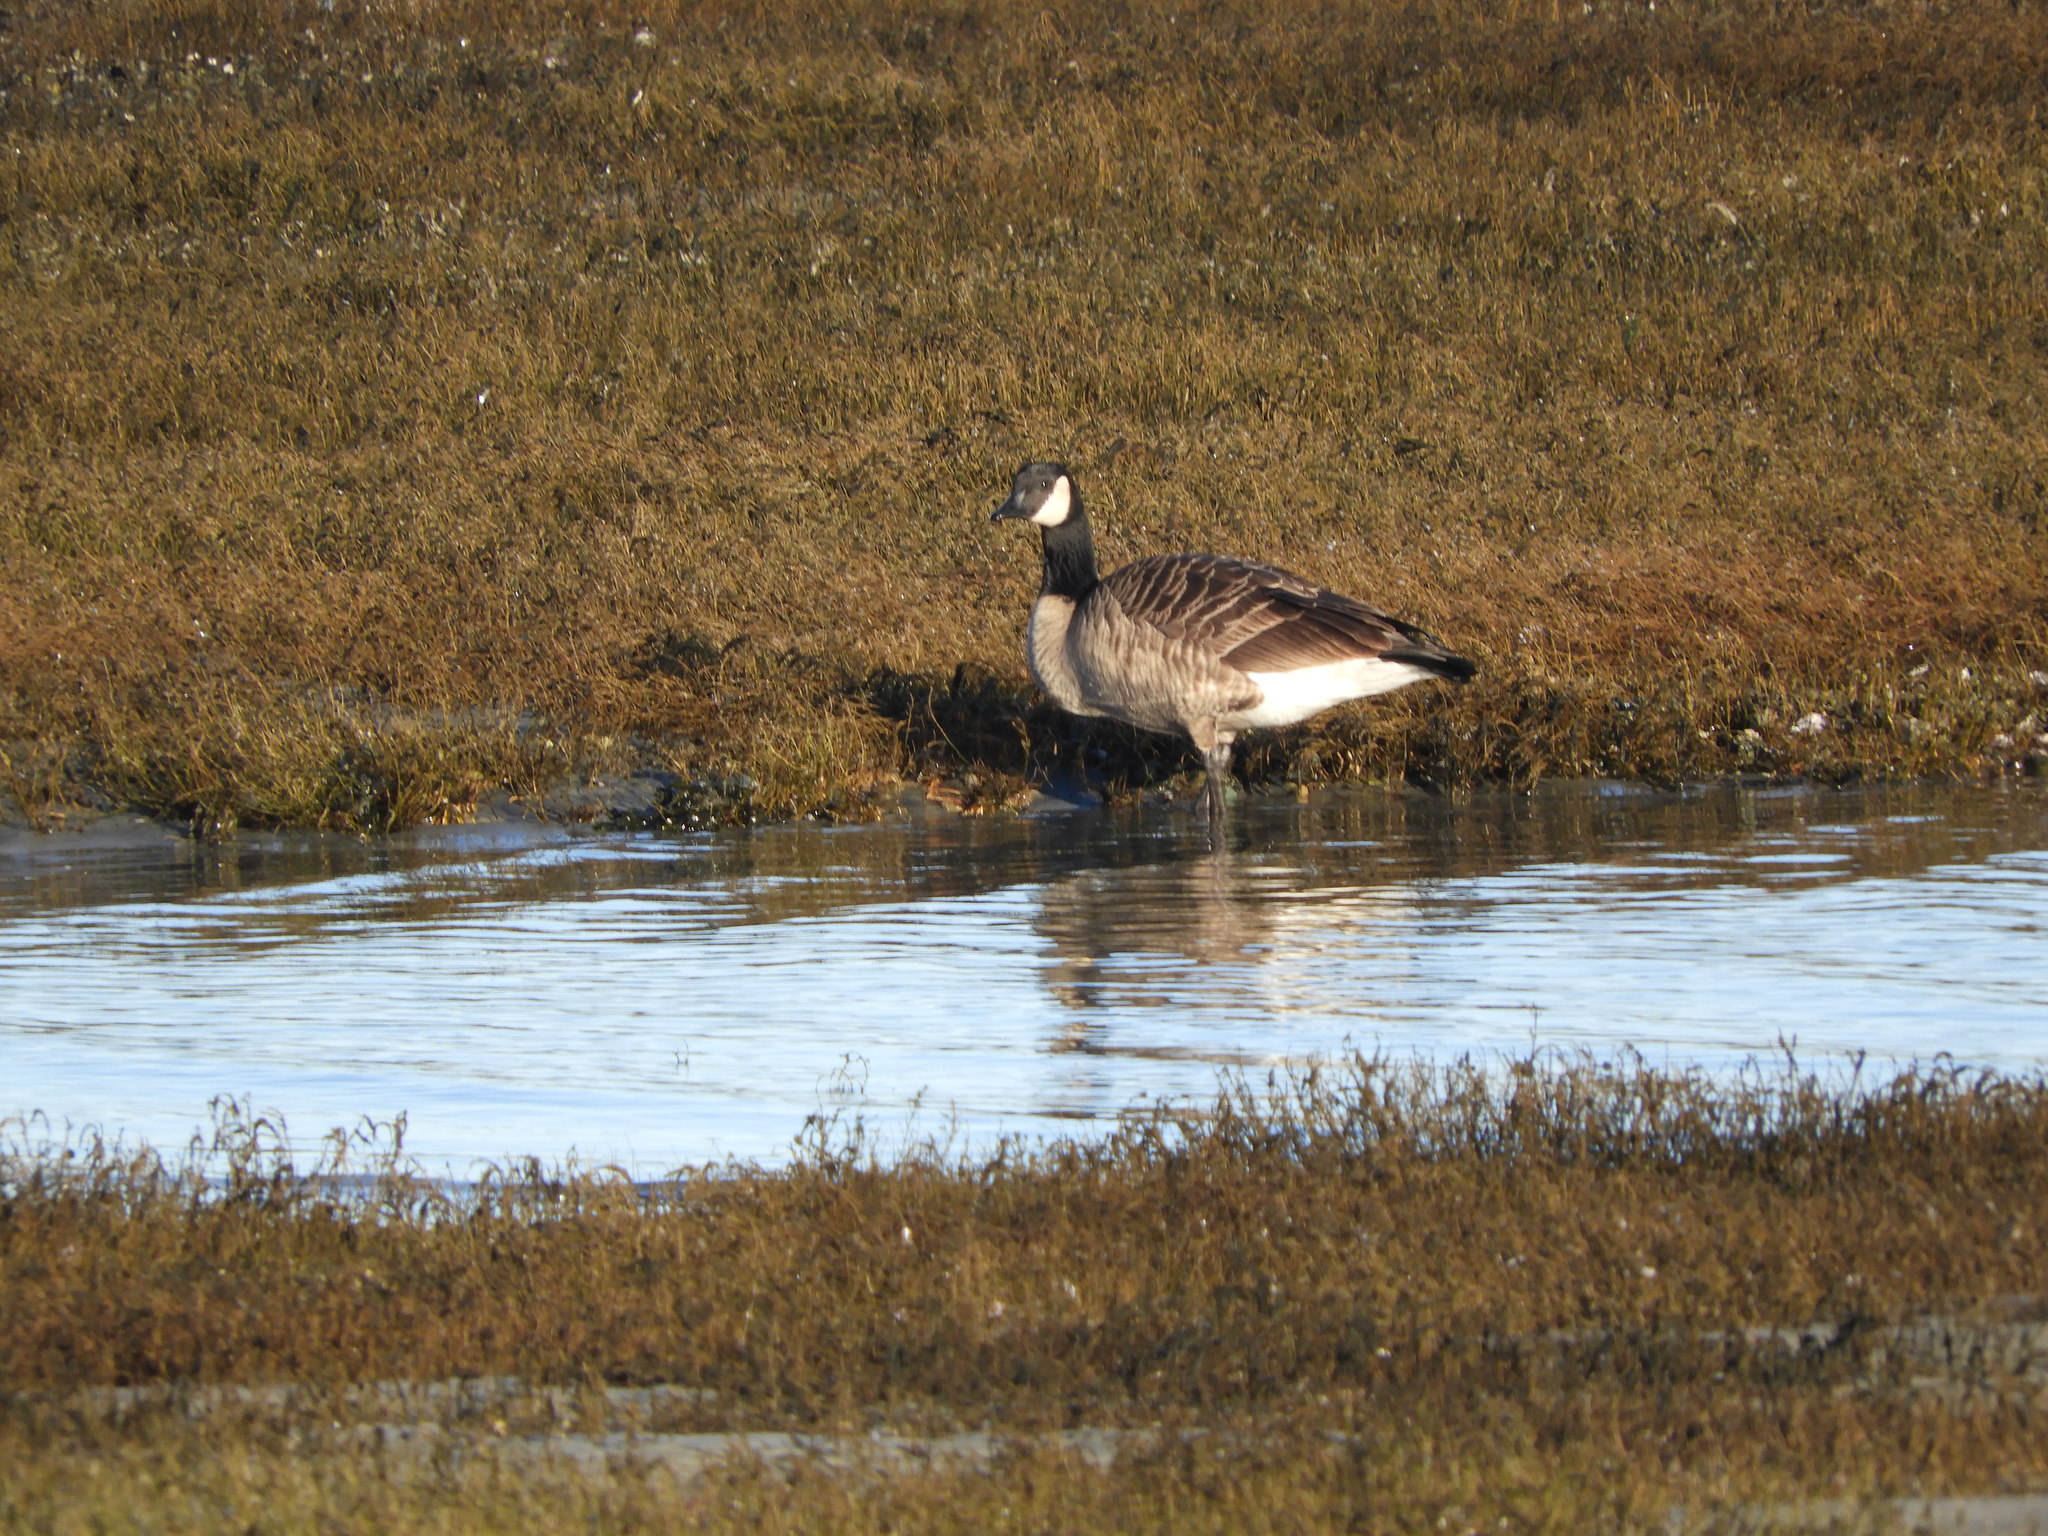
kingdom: Animalia
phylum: Chordata
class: Aves
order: Anseriformes
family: Anatidae
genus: Branta
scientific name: Branta canadensis
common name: Canada goose
